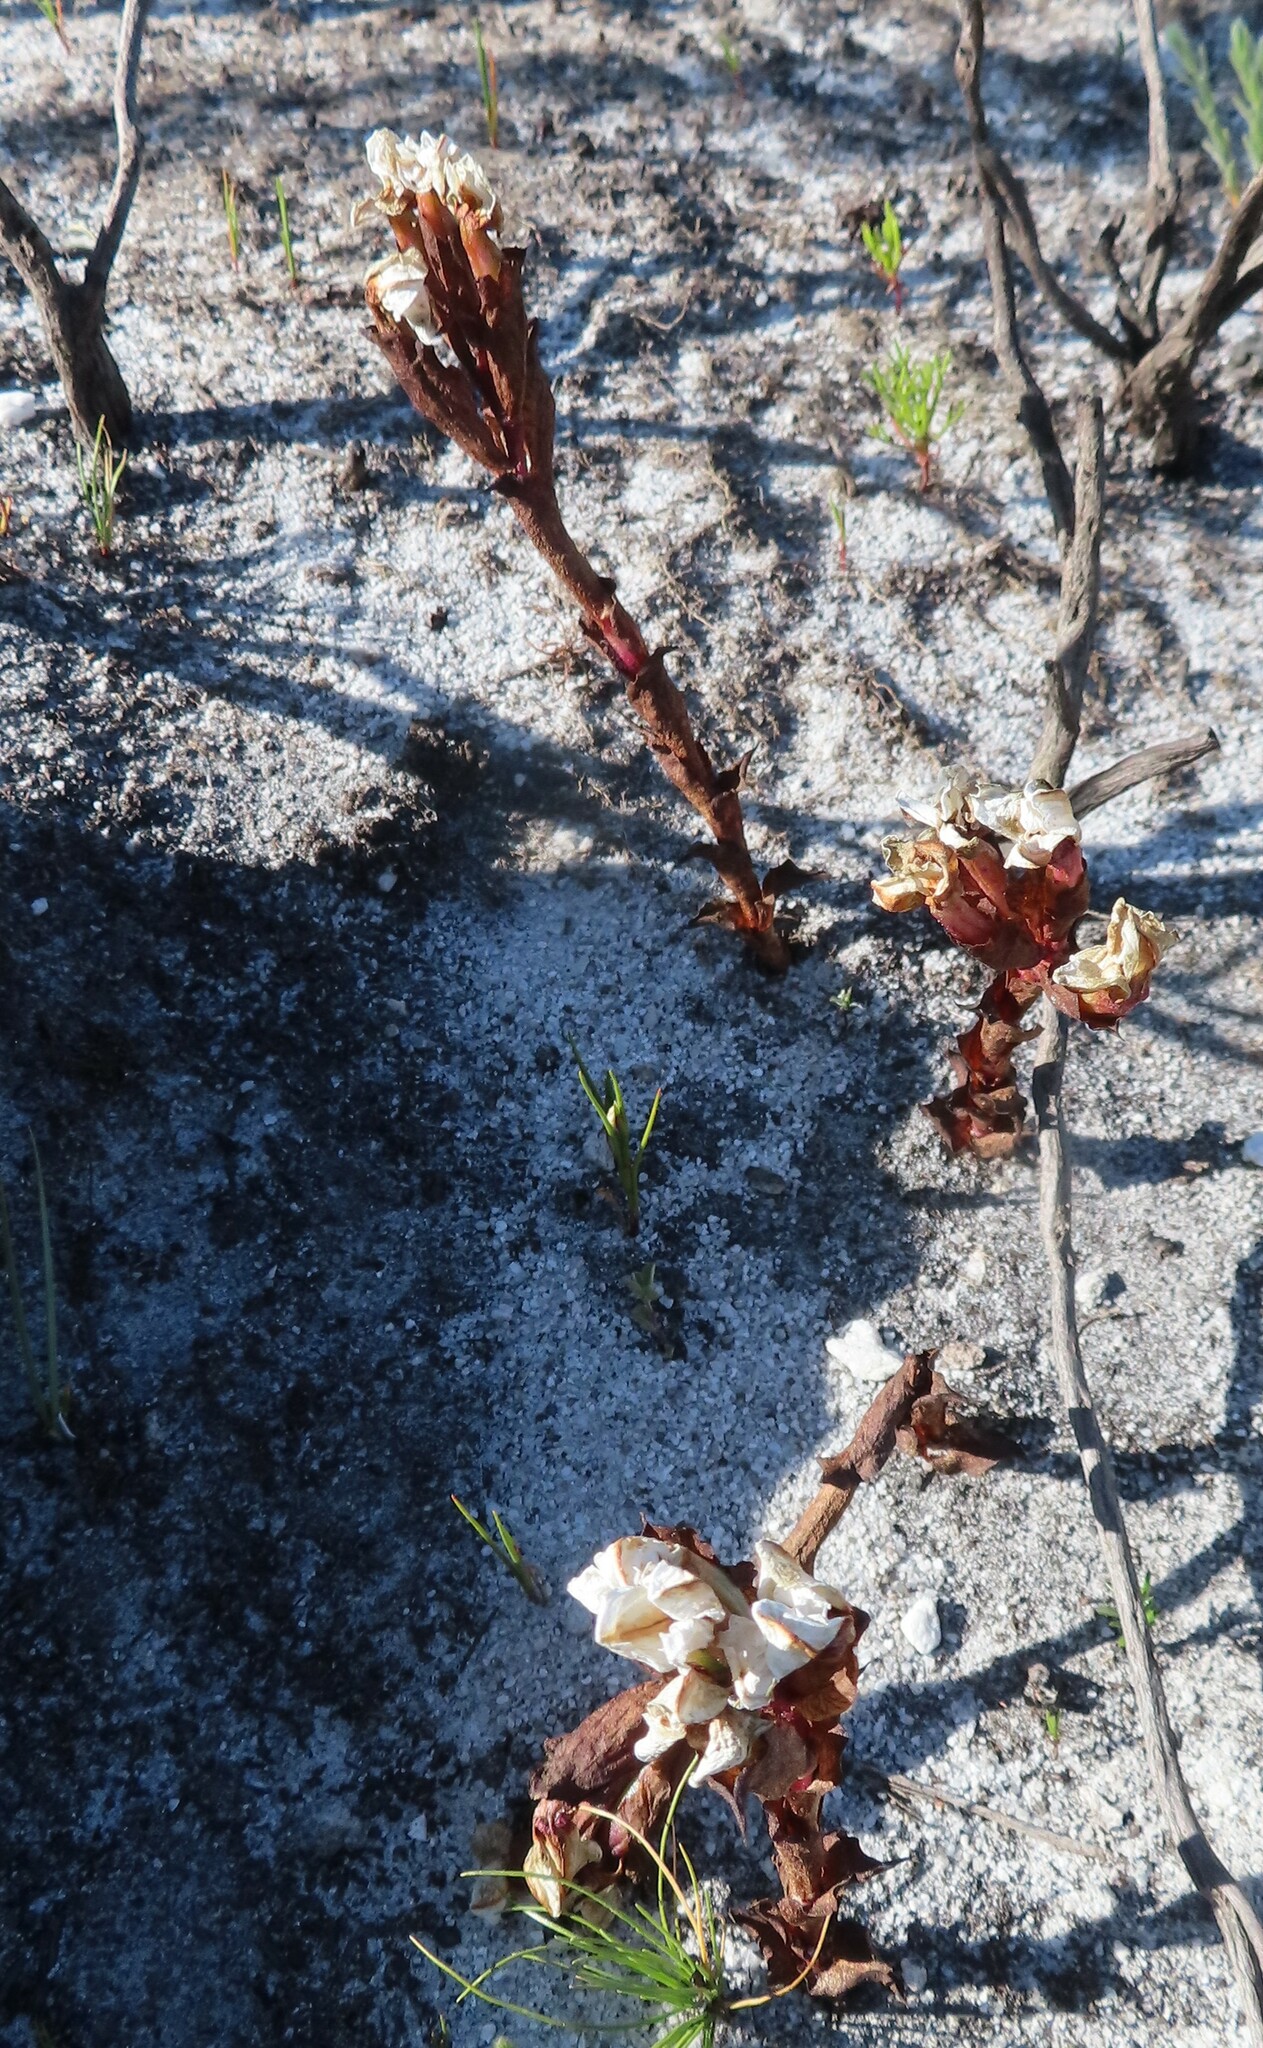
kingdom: Plantae
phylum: Tracheophyta
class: Liliopsida
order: Asparagales
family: Orchidaceae
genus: Disa
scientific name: Disa fasciata
